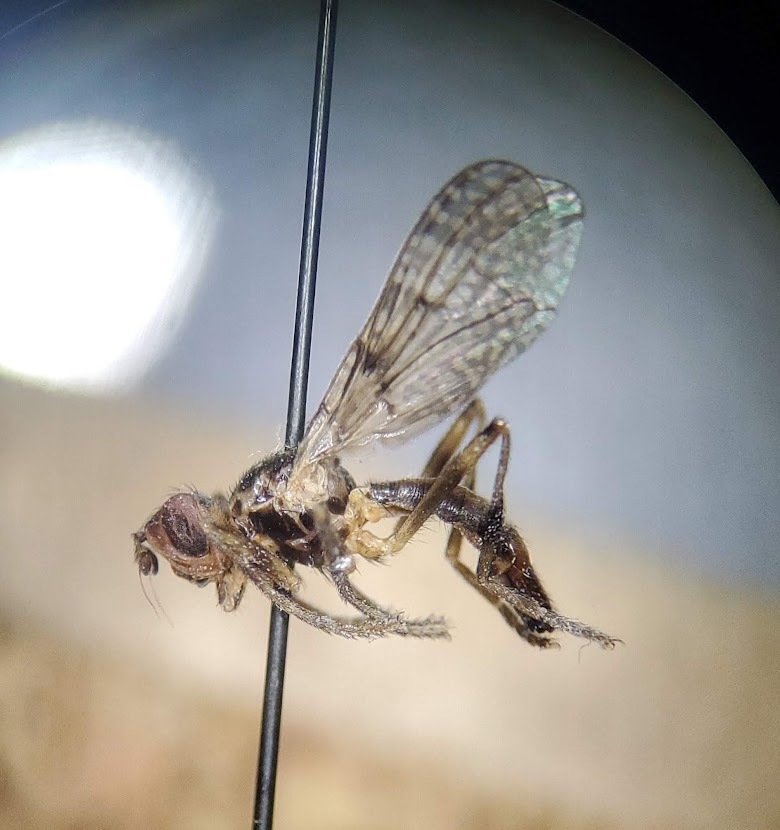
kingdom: Animalia
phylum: Arthropoda
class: Insecta
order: Diptera
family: Pyrgotidae
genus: Boreothrinax
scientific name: Boreothrinax
